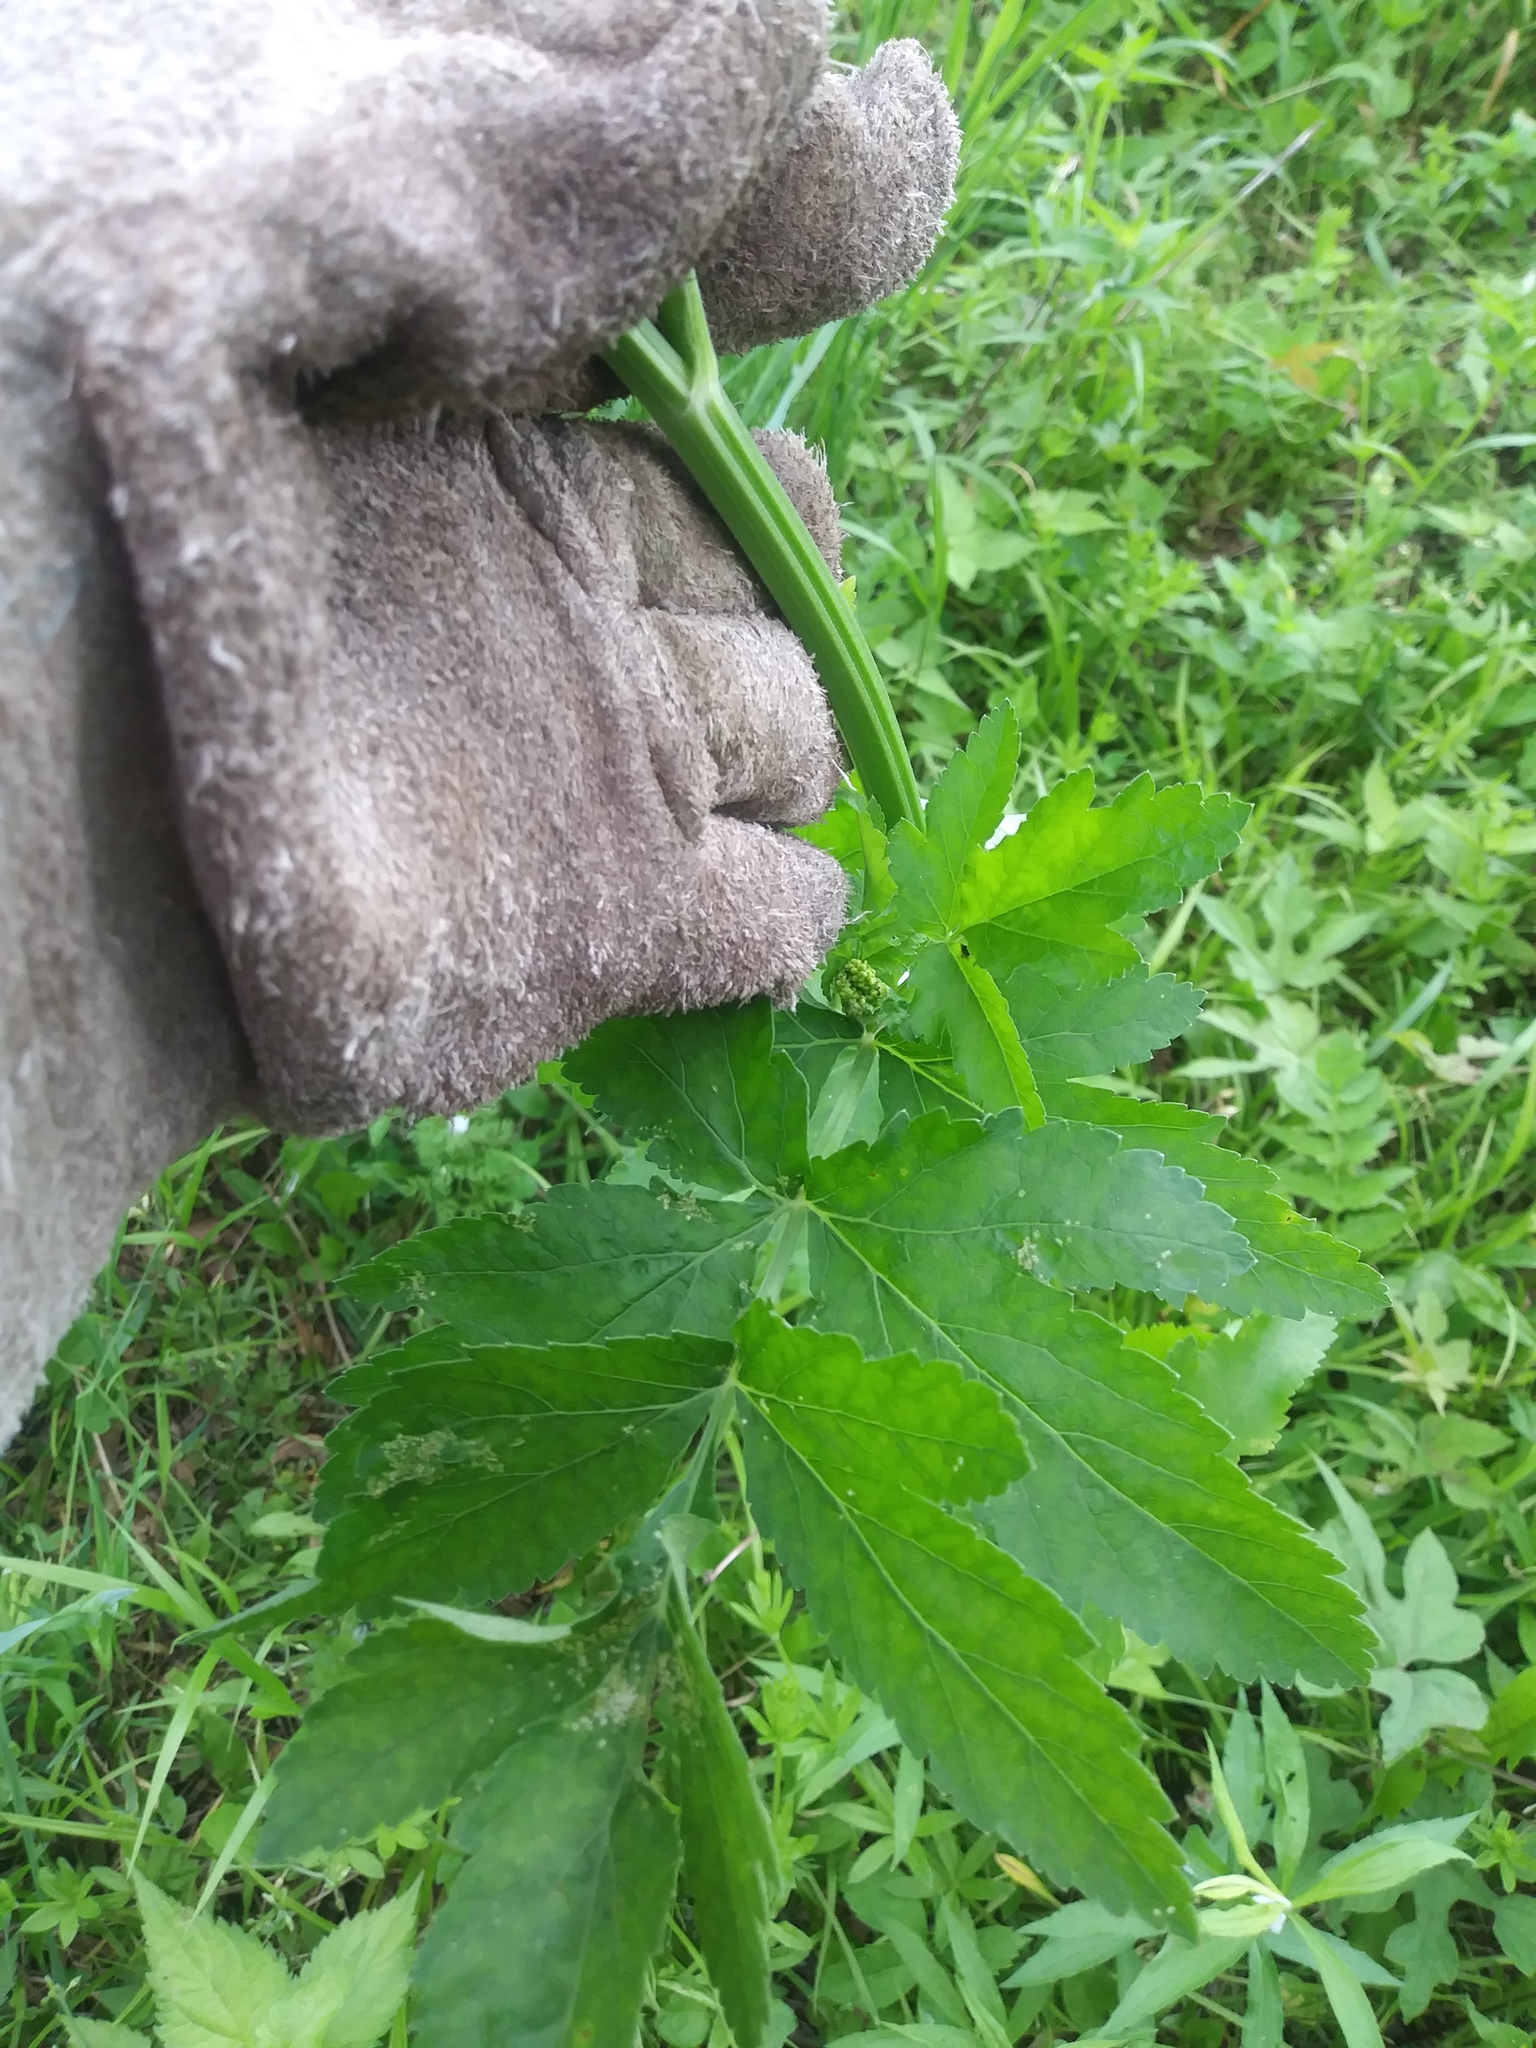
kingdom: Plantae
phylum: Tracheophyta
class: Magnoliopsida
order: Apiales
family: Apiaceae
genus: Pastinaca
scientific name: Pastinaca sativa
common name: Wild parsnip
